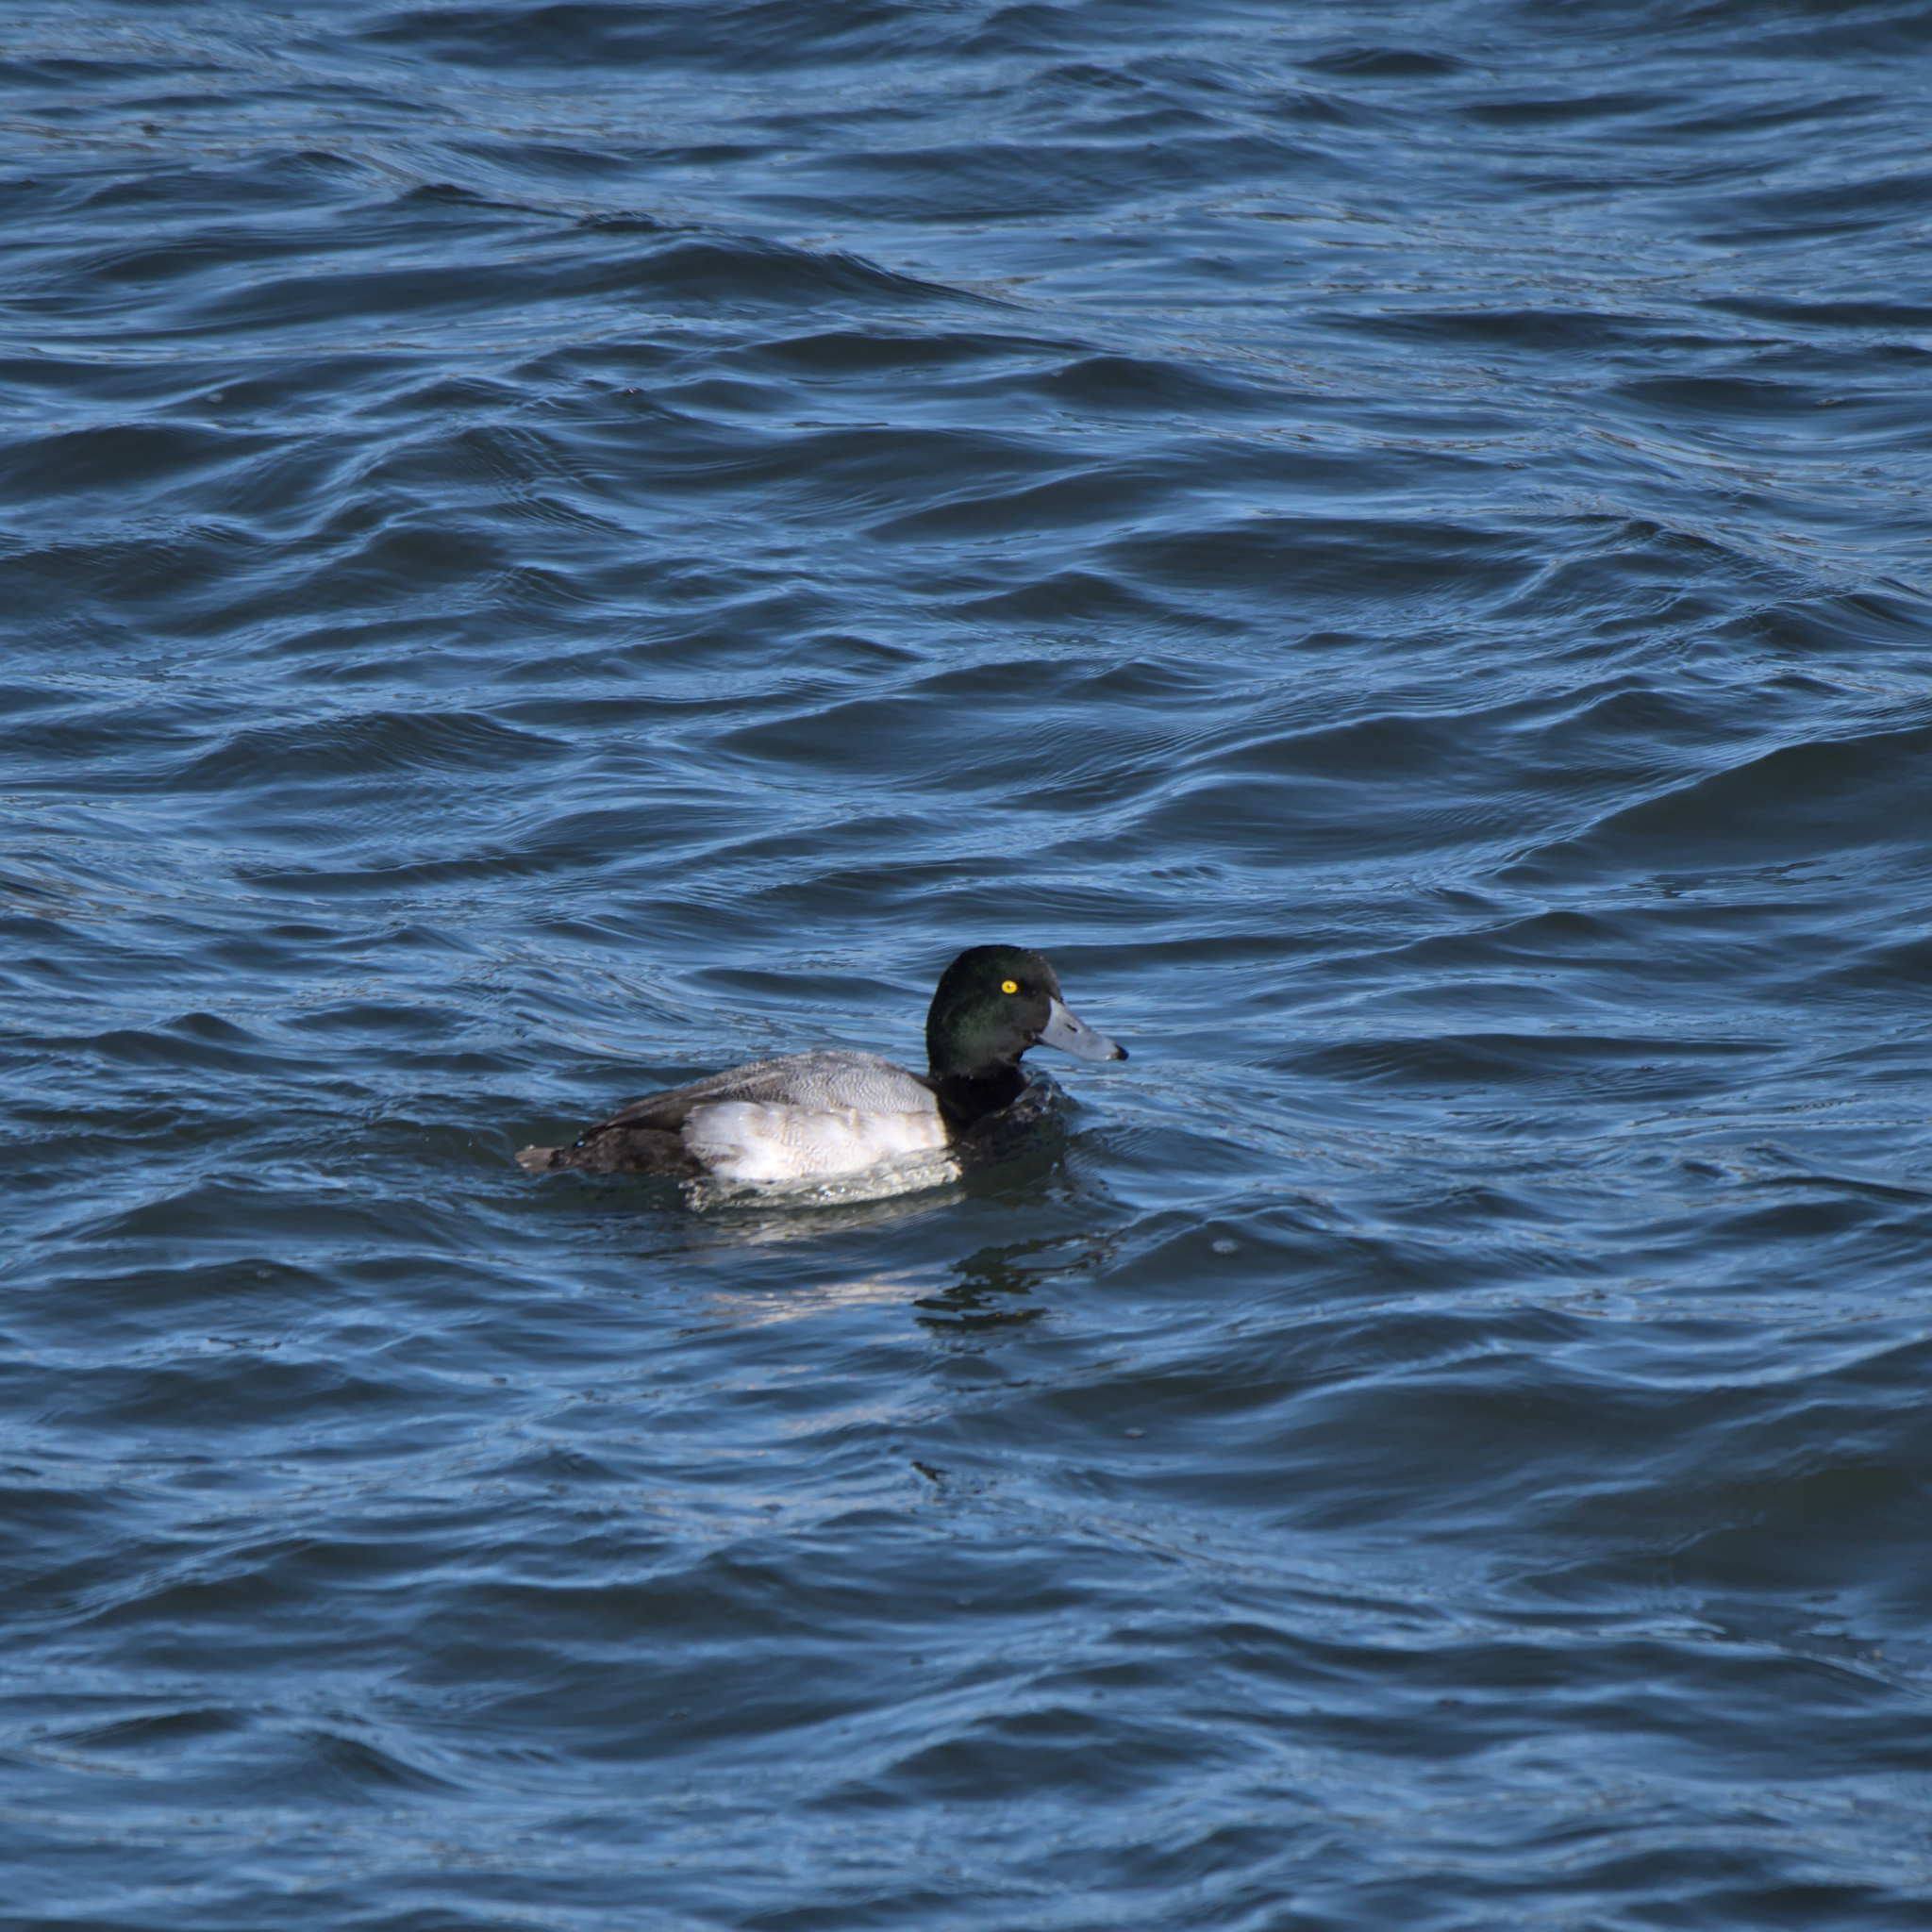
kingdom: Animalia
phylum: Chordata
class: Aves
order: Anseriformes
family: Anatidae
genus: Aythya
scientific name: Aythya marila
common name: Greater scaup
